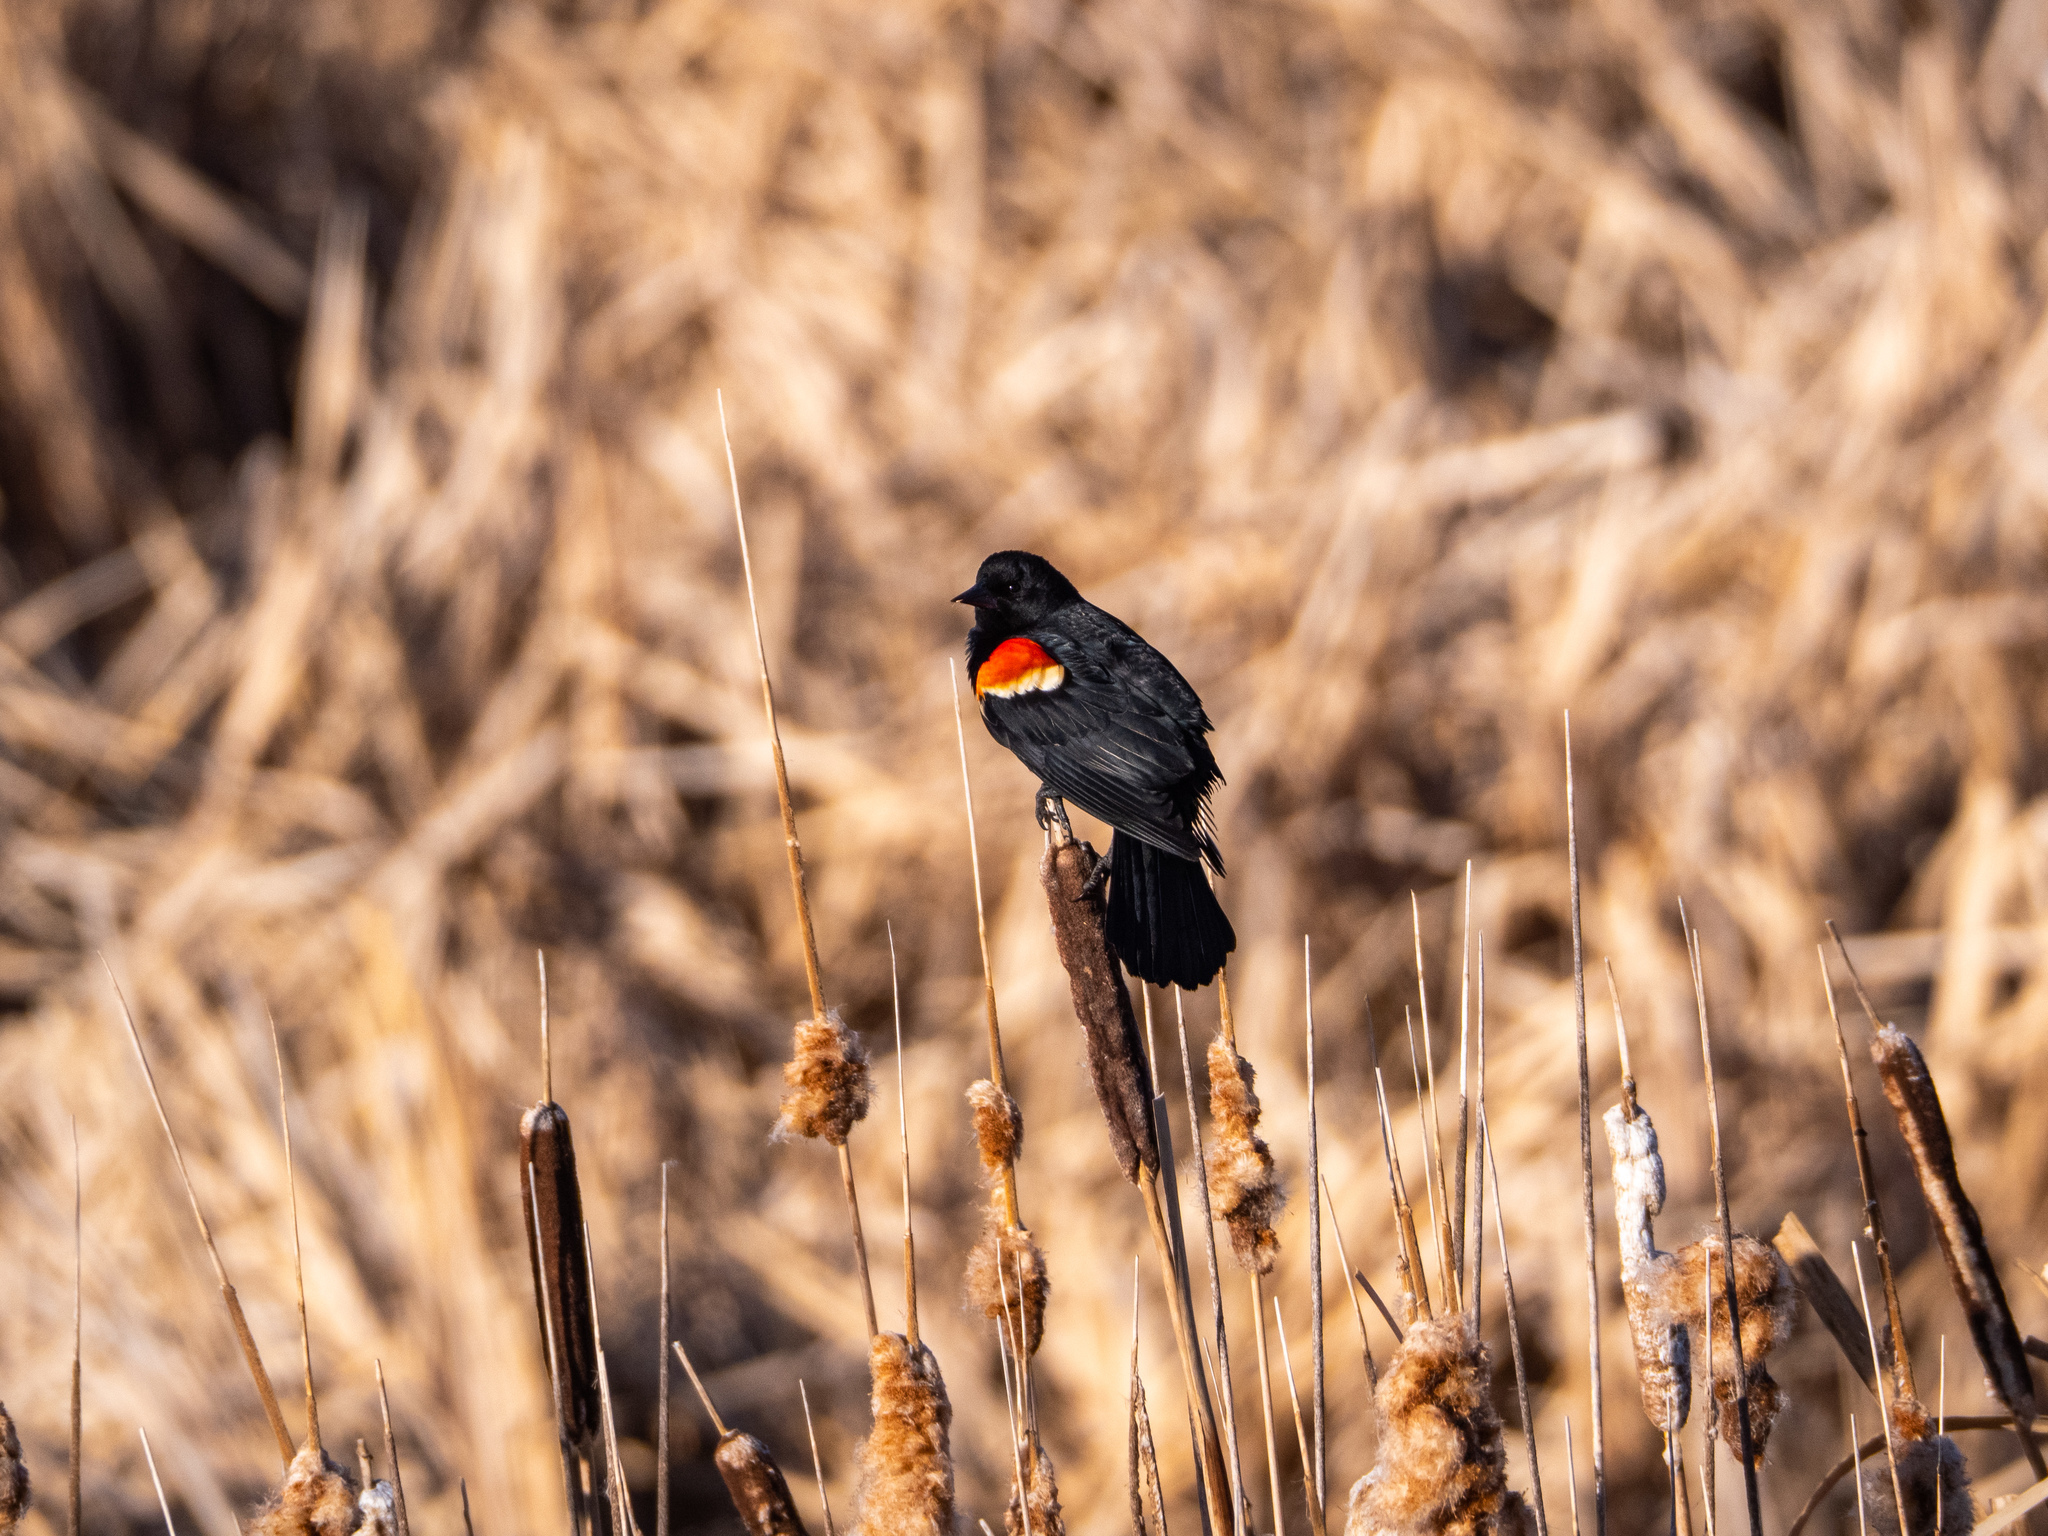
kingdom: Animalia
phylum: Chordata
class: Aves
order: Passeriformes
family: Icteridae
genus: Agelaius
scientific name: Agelaius phoeniceus
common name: Red-winged blackbird
